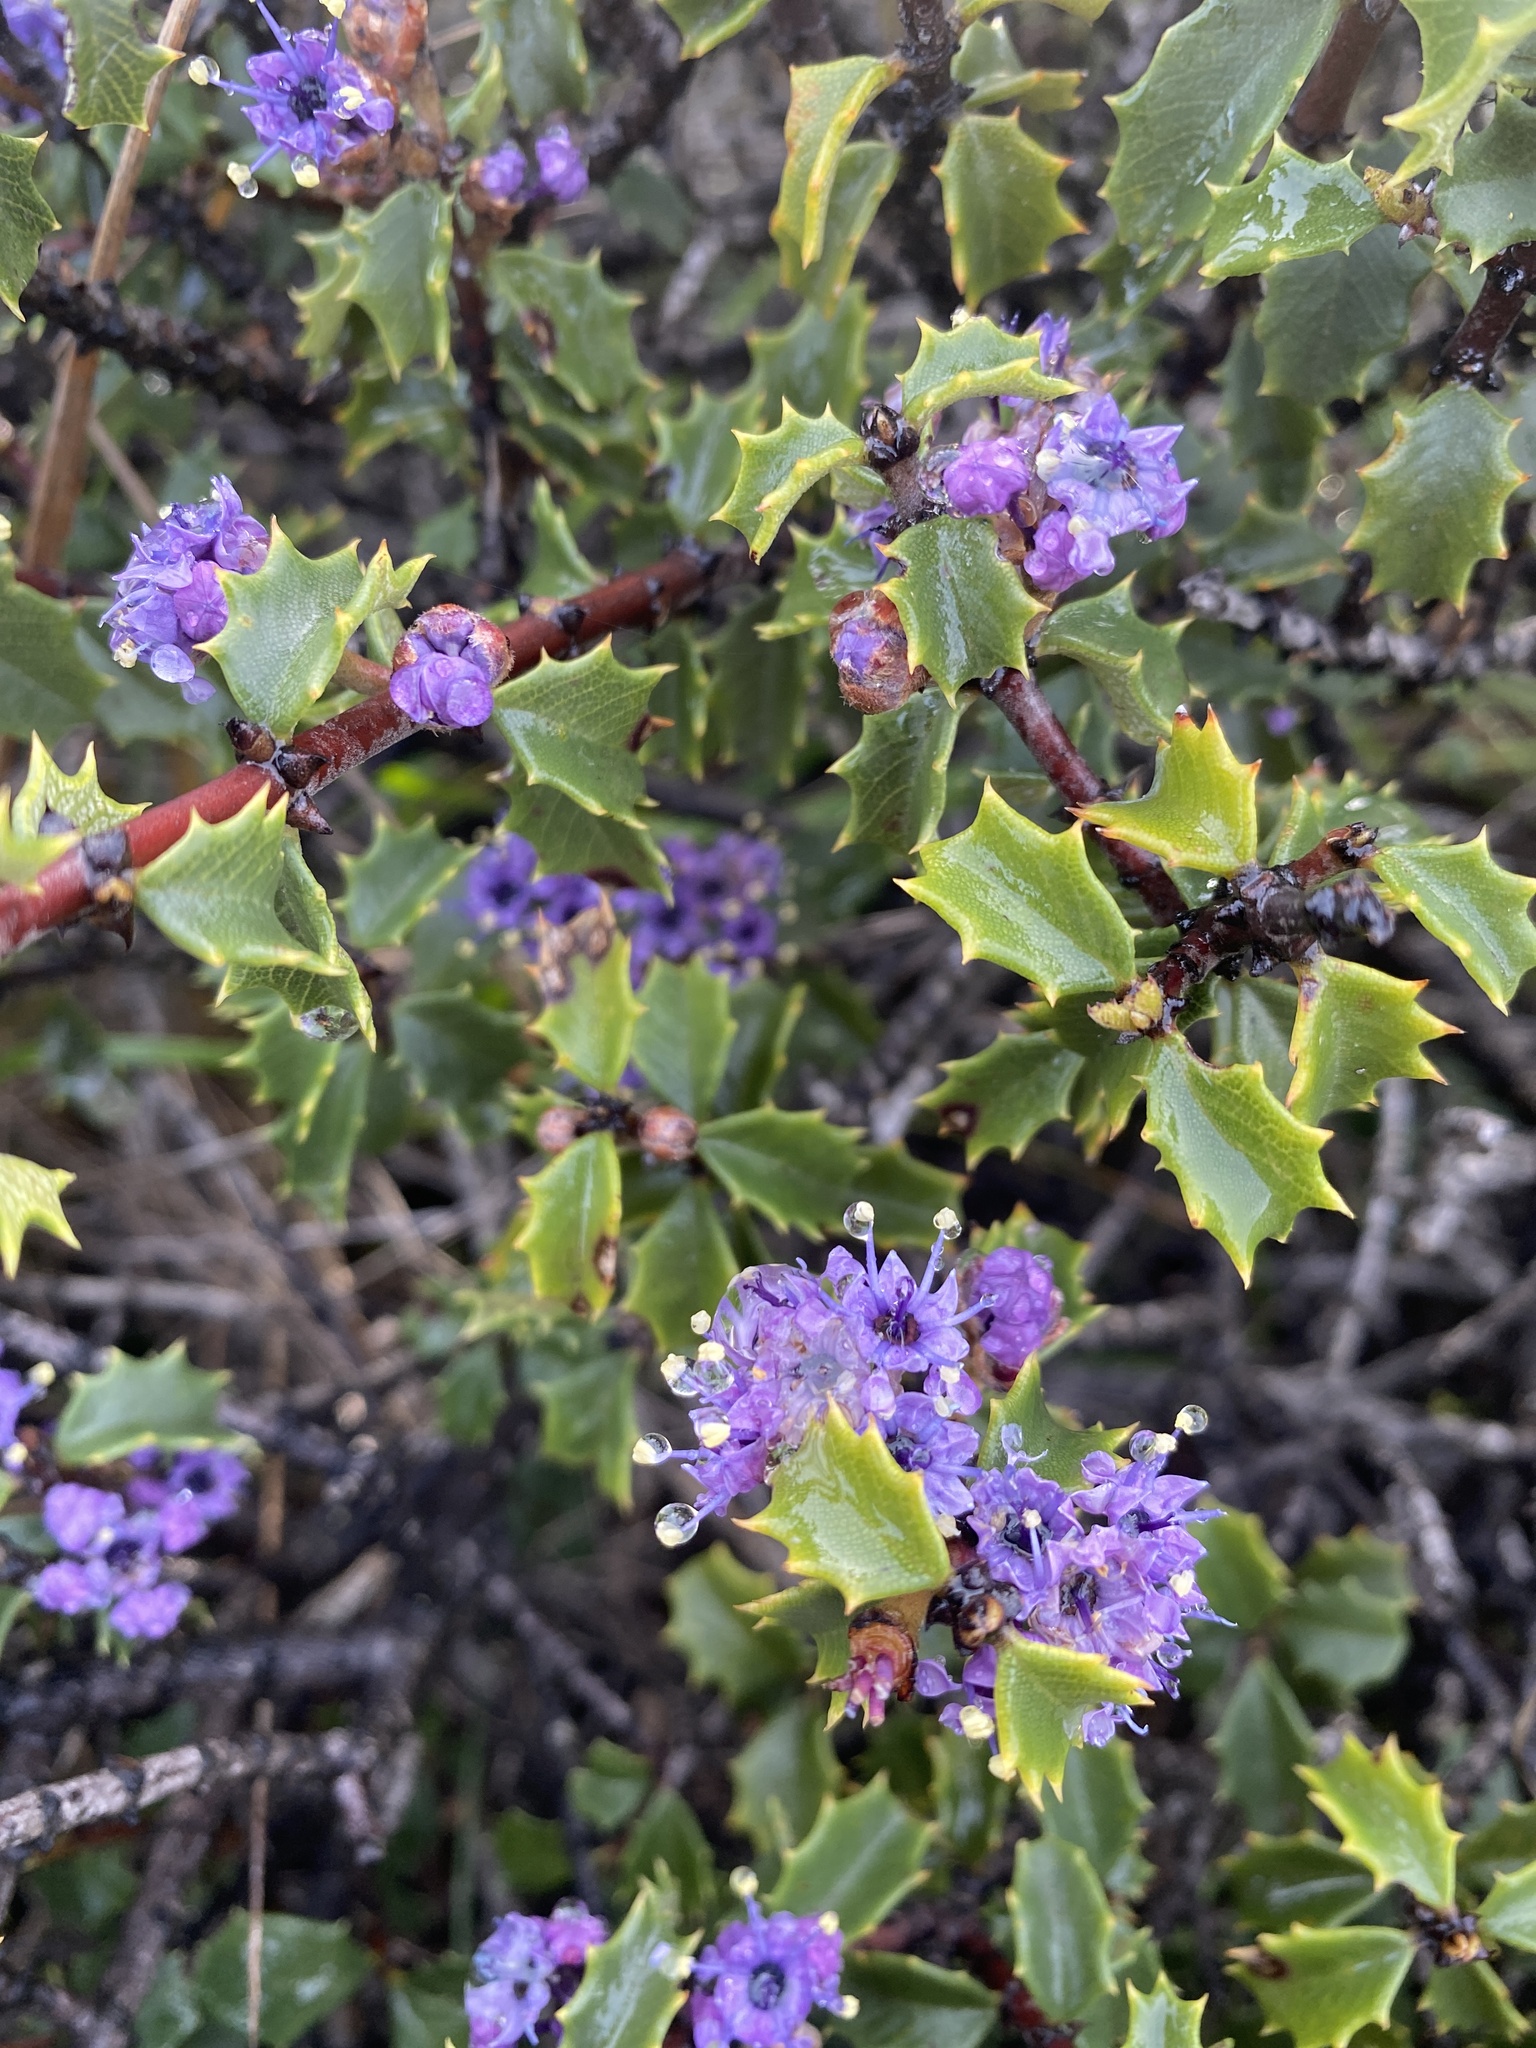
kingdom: Plantae
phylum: Tracheophyta
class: Magnoliopsida
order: Rosales
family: Rhamnaceae
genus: Ceanothus
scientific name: Ceanothus jepsonii
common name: Muskbrush
